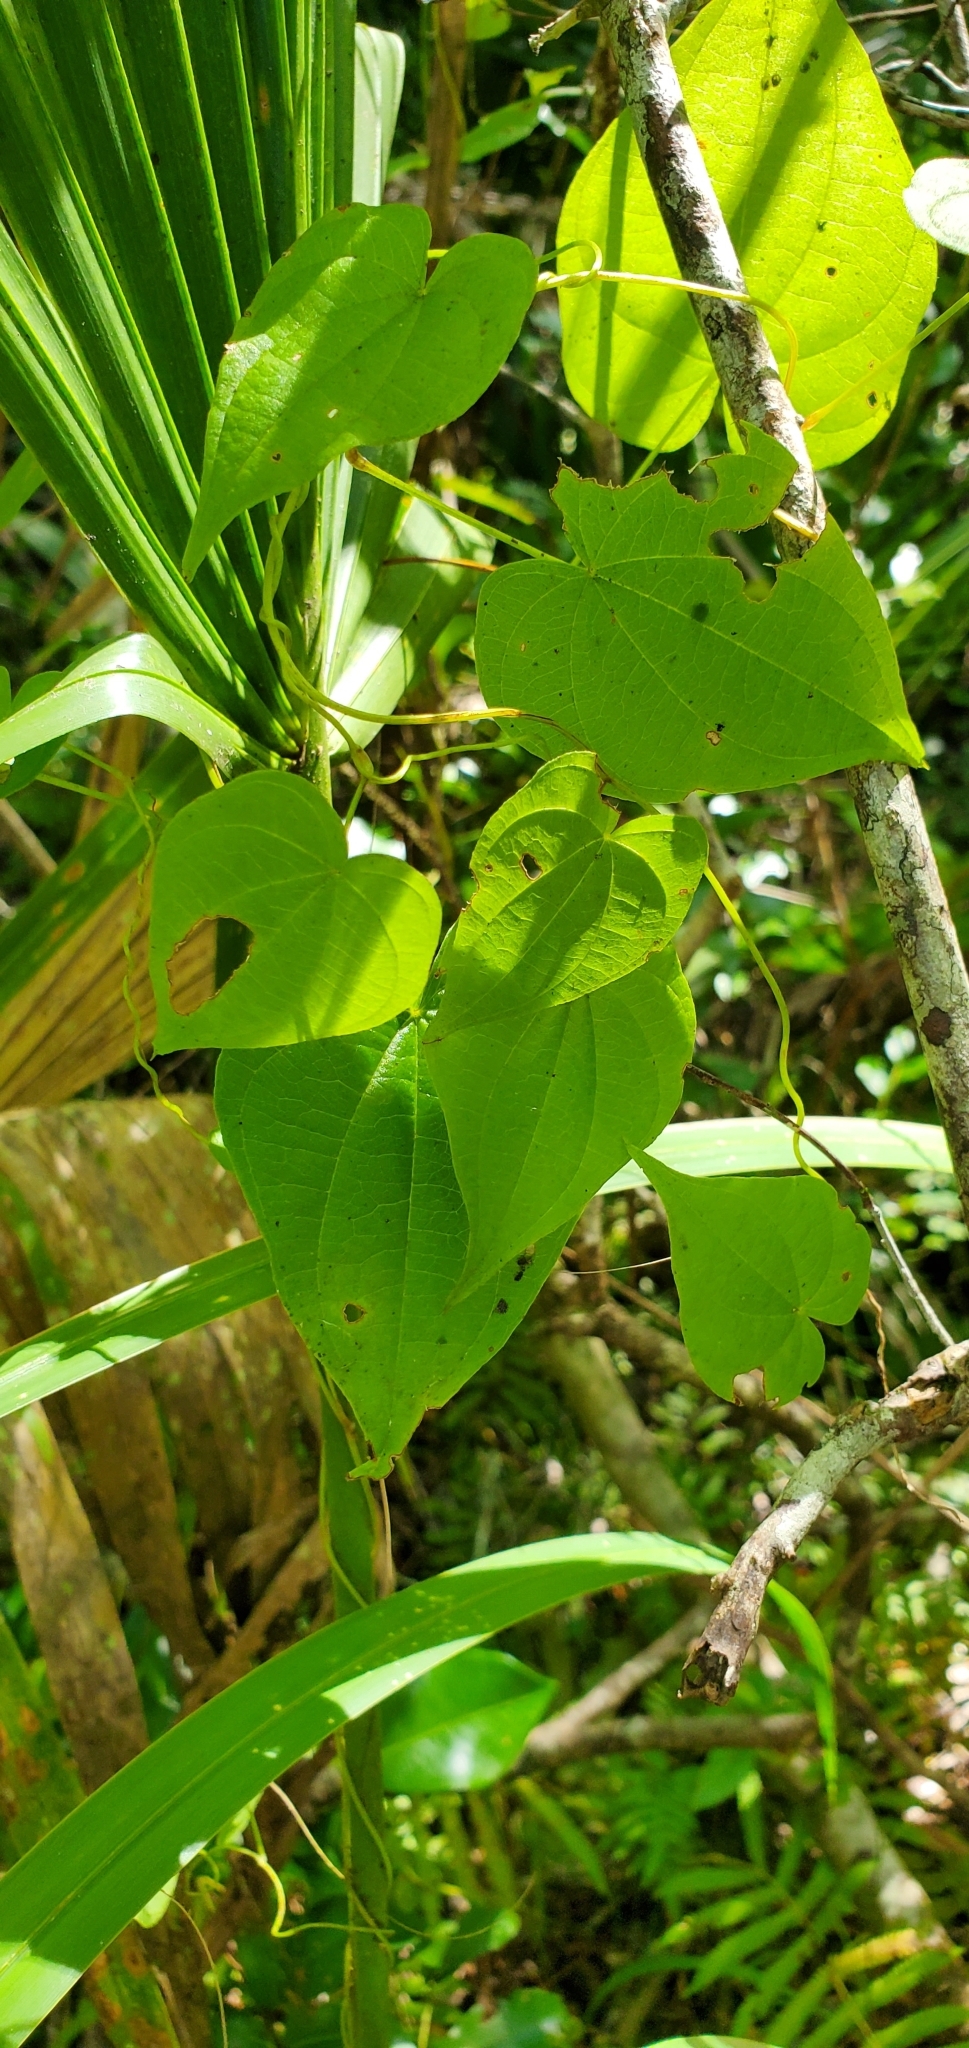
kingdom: Plantae
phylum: Tracheophyta
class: Liliopsida
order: Dioscoreales
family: Dioscoreaceae
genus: Dioscorea
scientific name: Dioscorea floridana
